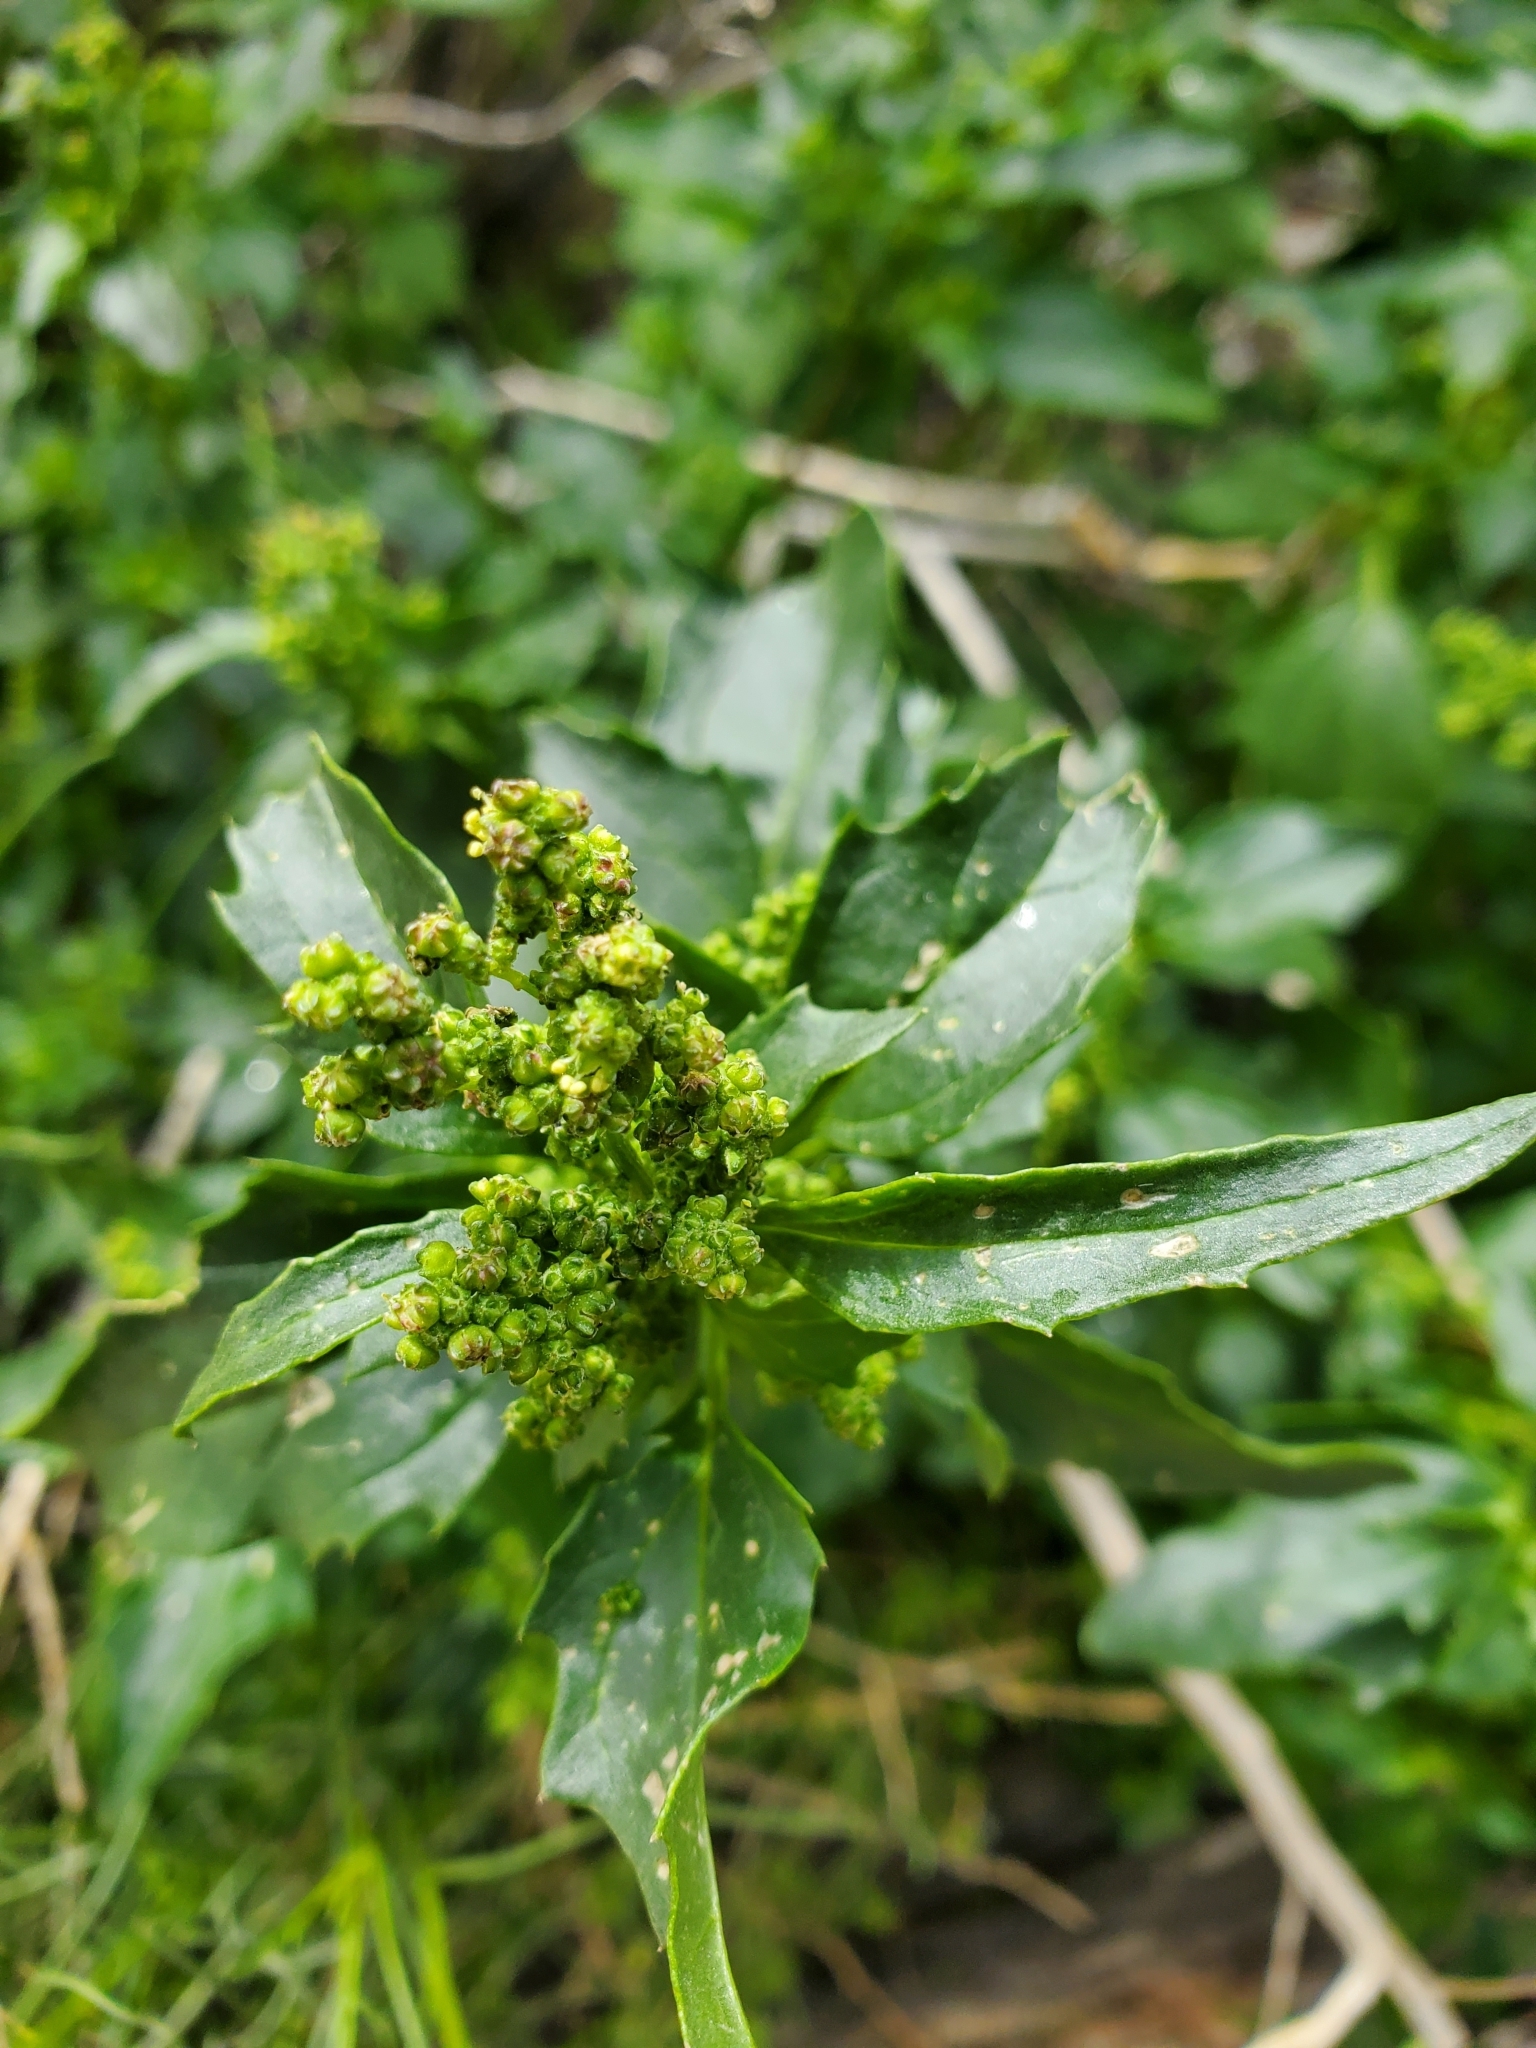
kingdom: Plantae
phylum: Tracheophyta
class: Magnoliopsida
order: Caryophyllales
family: Amaranthaceae
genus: Chenopodiastrum
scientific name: Chenopodiastrum murale
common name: Sowbane
